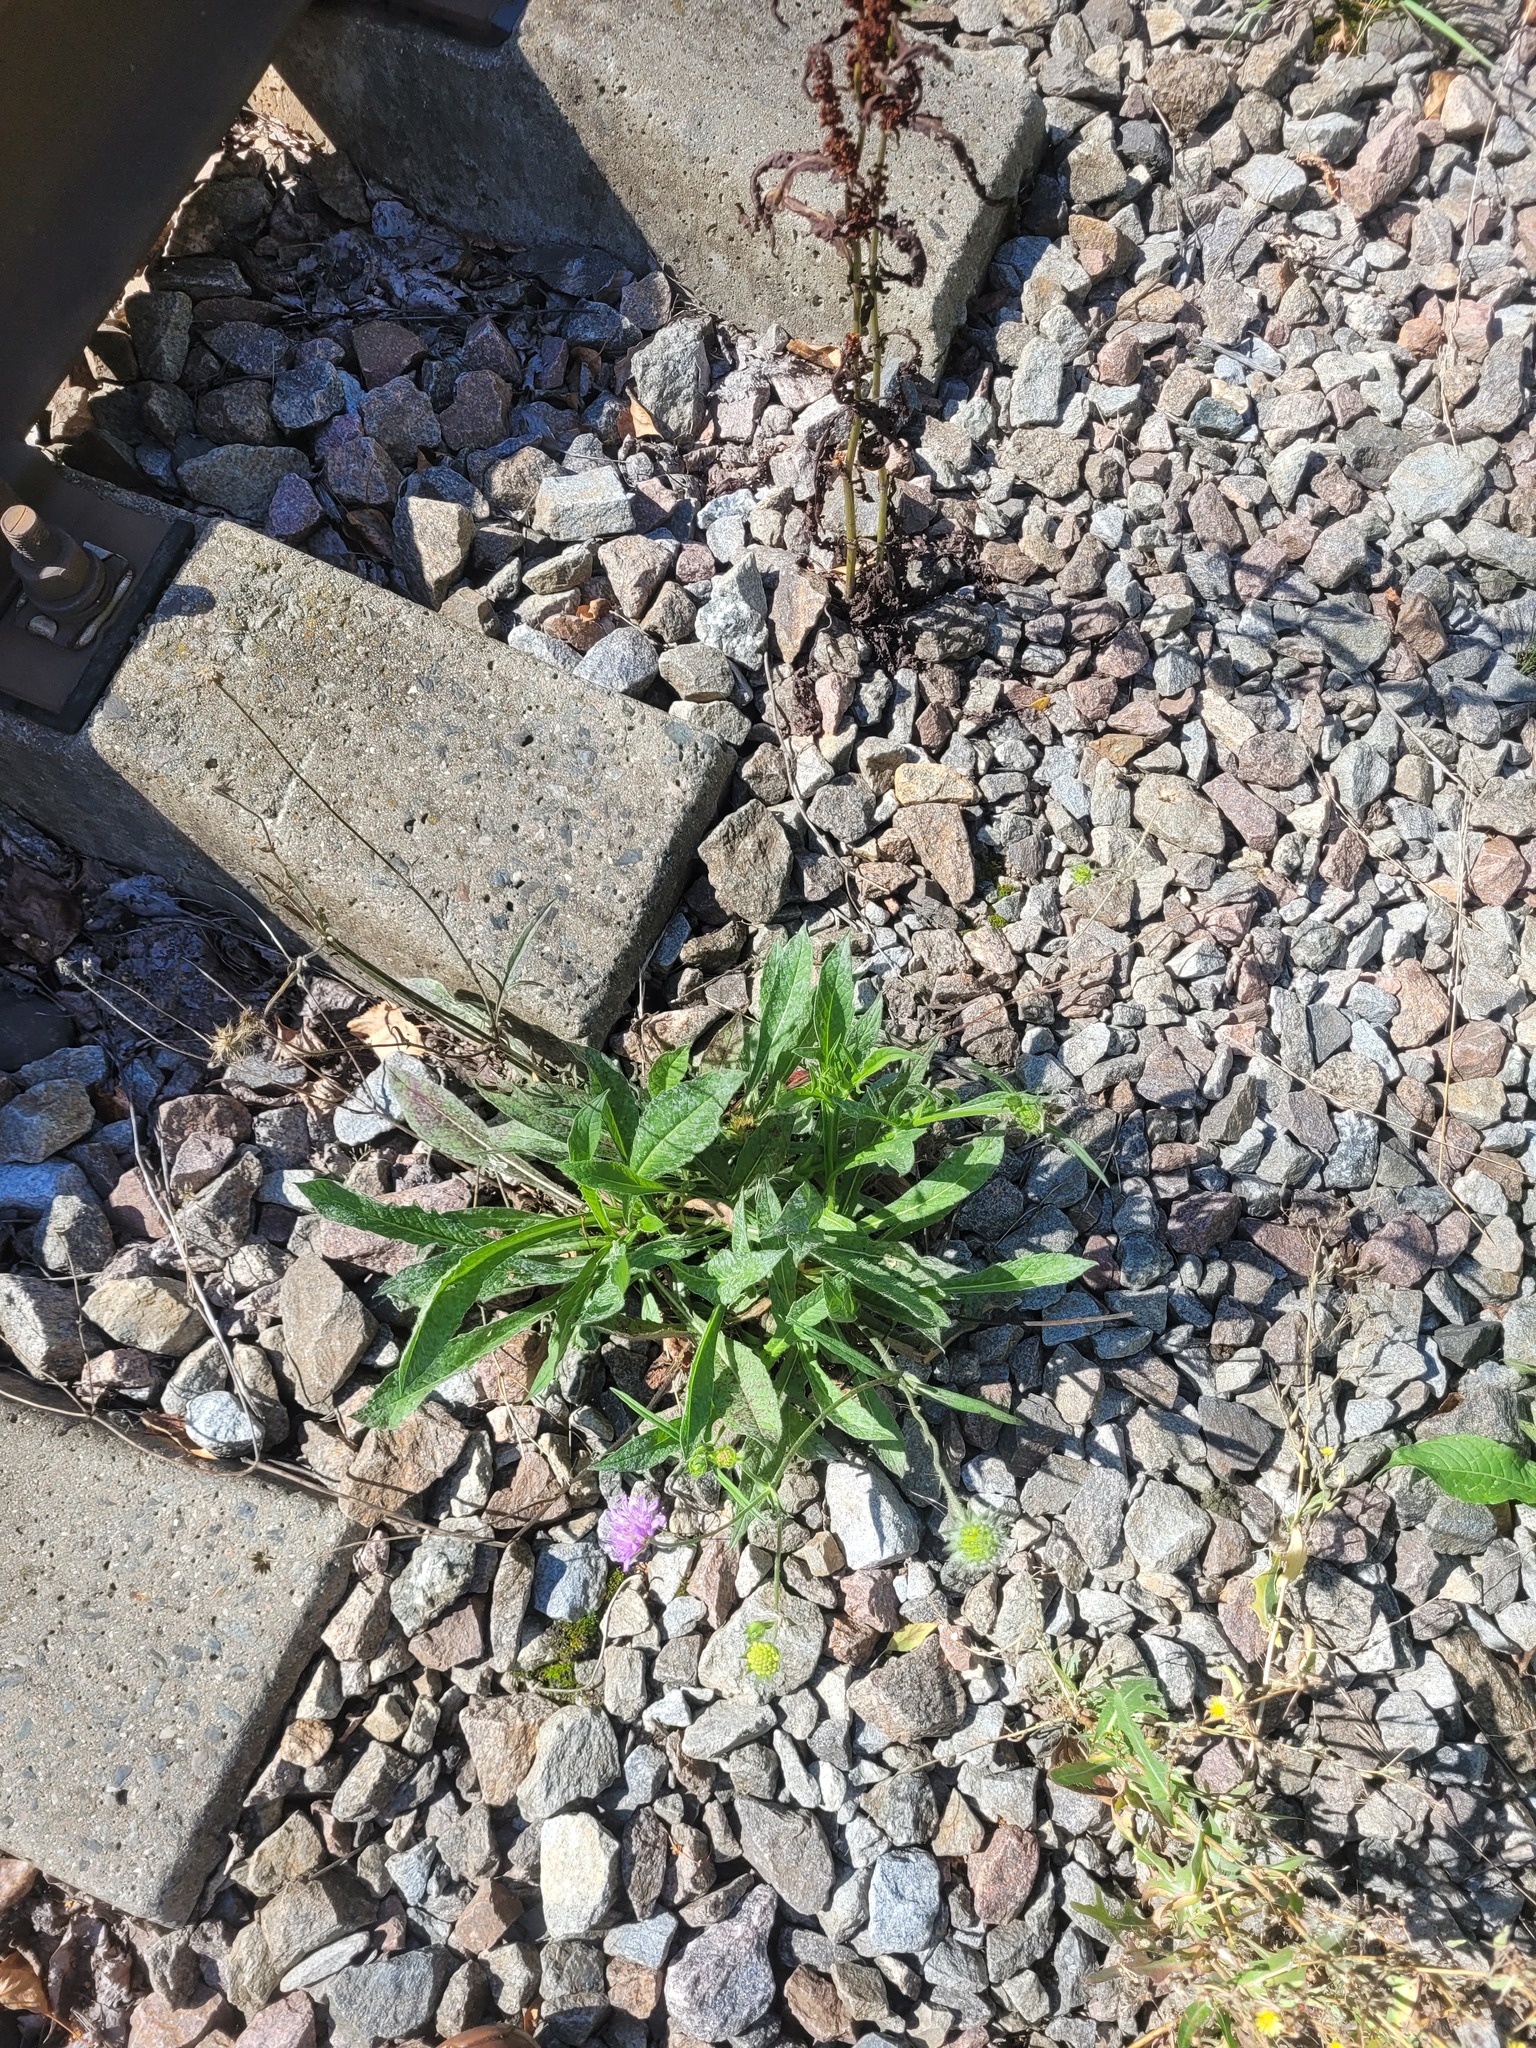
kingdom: Plantae
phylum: Tracheophyta
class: Magnoliopsida
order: Dipsacales
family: Caprifoliaceae
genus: Knautia
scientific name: Knautia arvensis
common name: Field scabiosa
